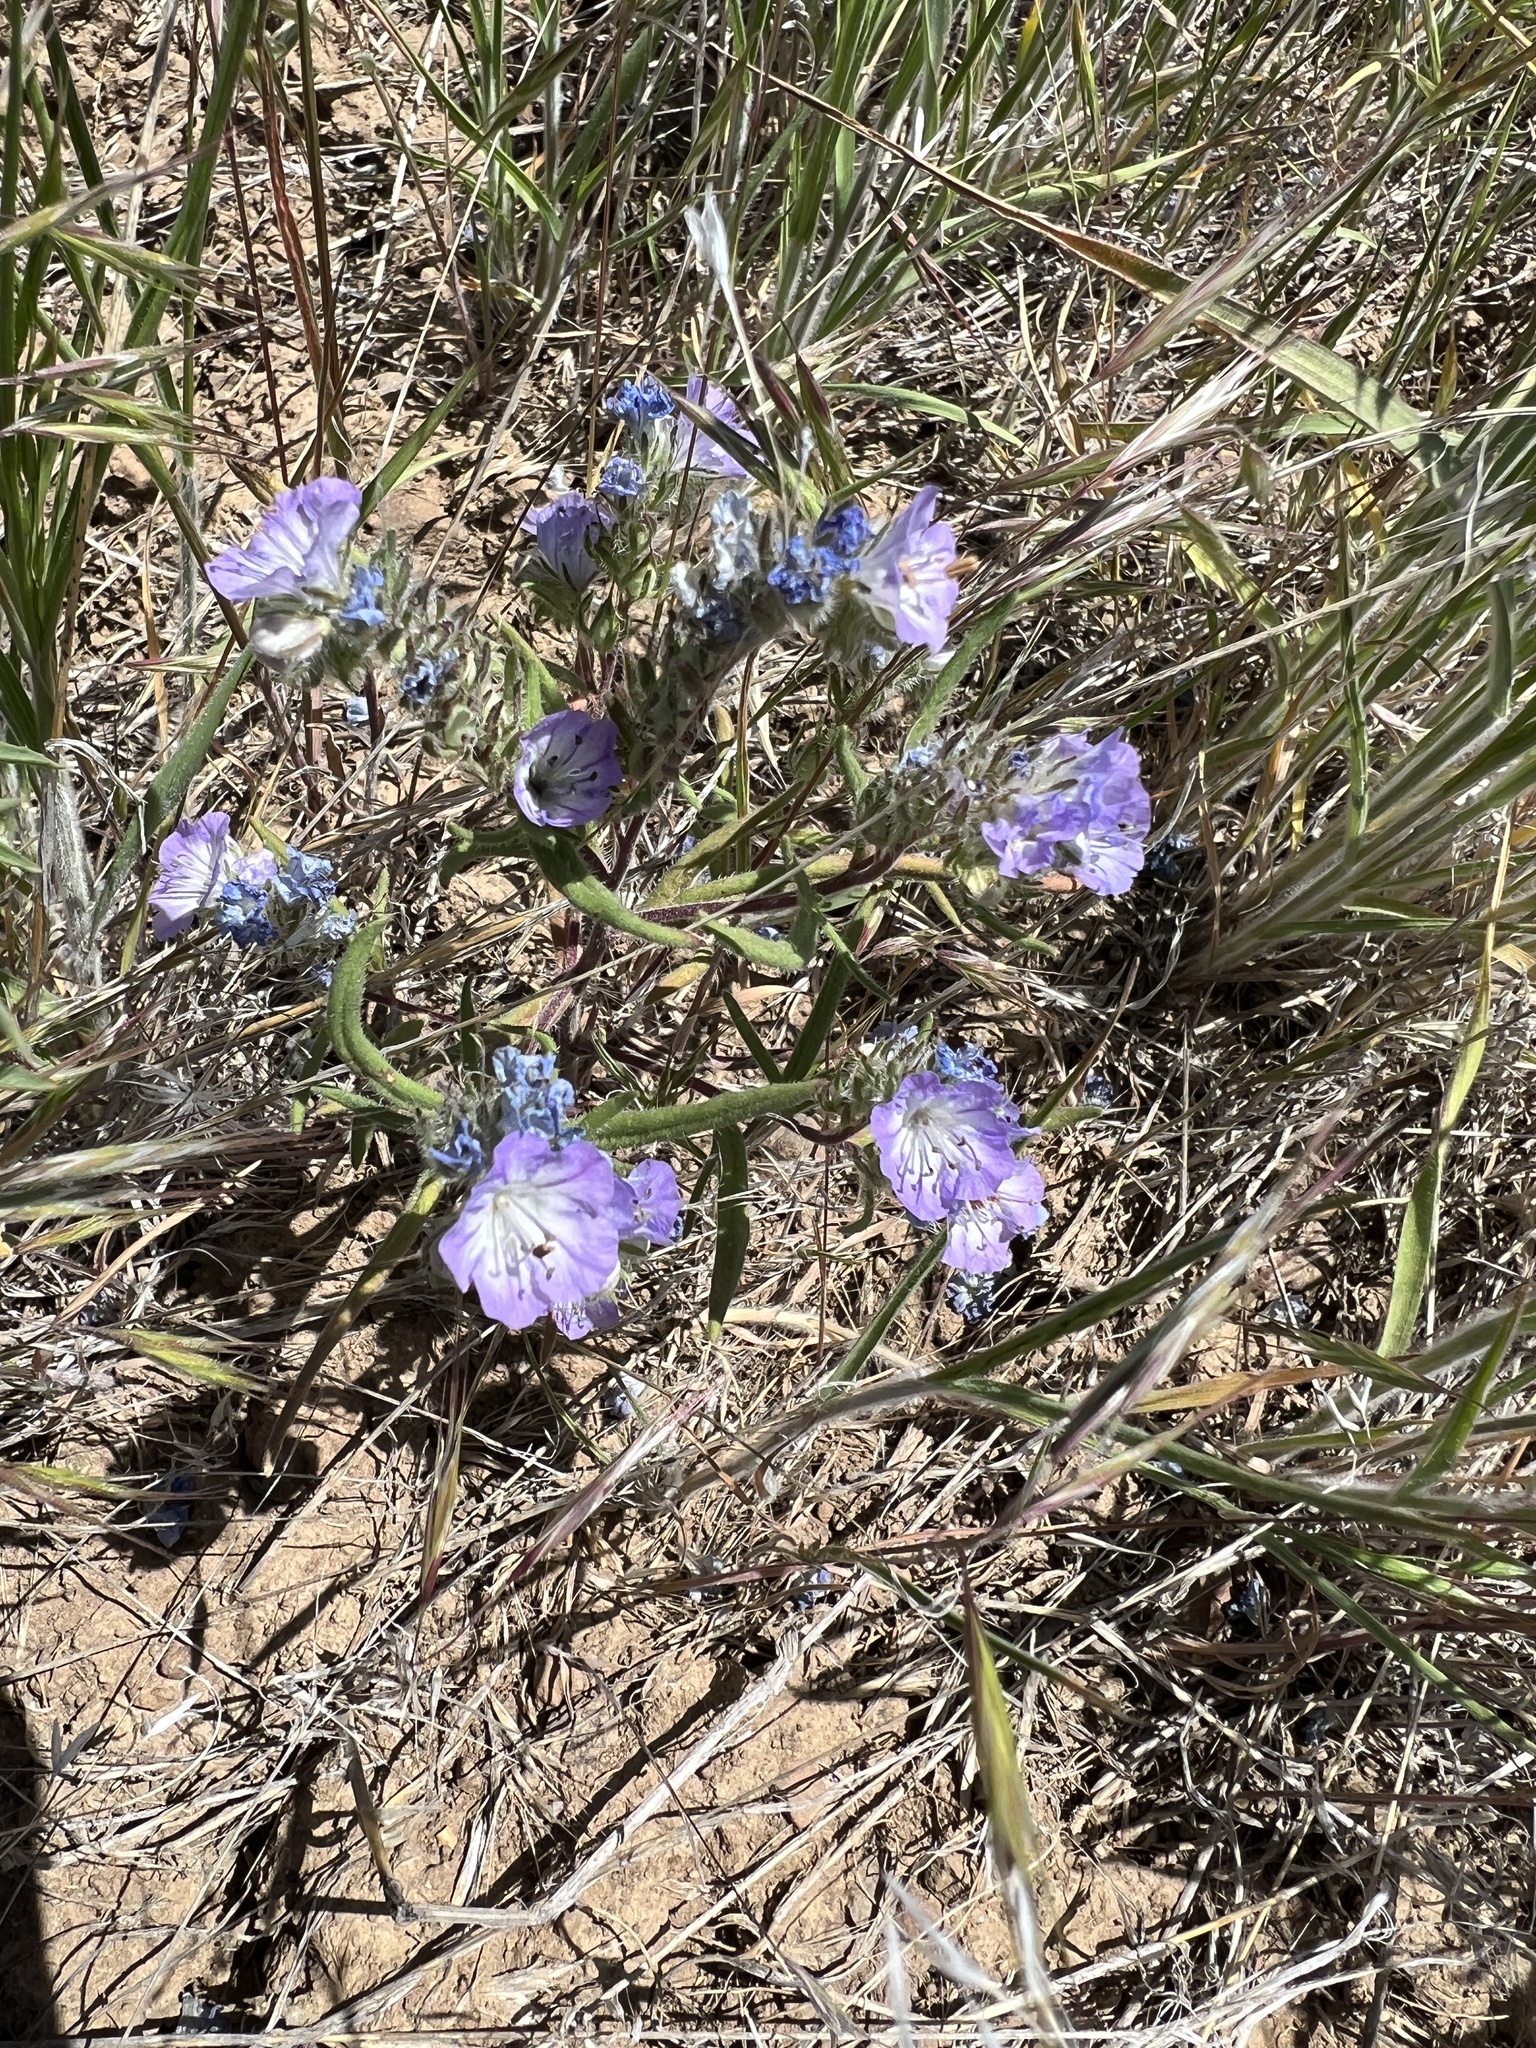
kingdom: Plantae
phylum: Tracheophyta
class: Magnoliopsida
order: Boraginales
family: Hydrophyllaceae
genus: Phacelia
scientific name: Phacelia linearis
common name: Linear-leaved phacelia
